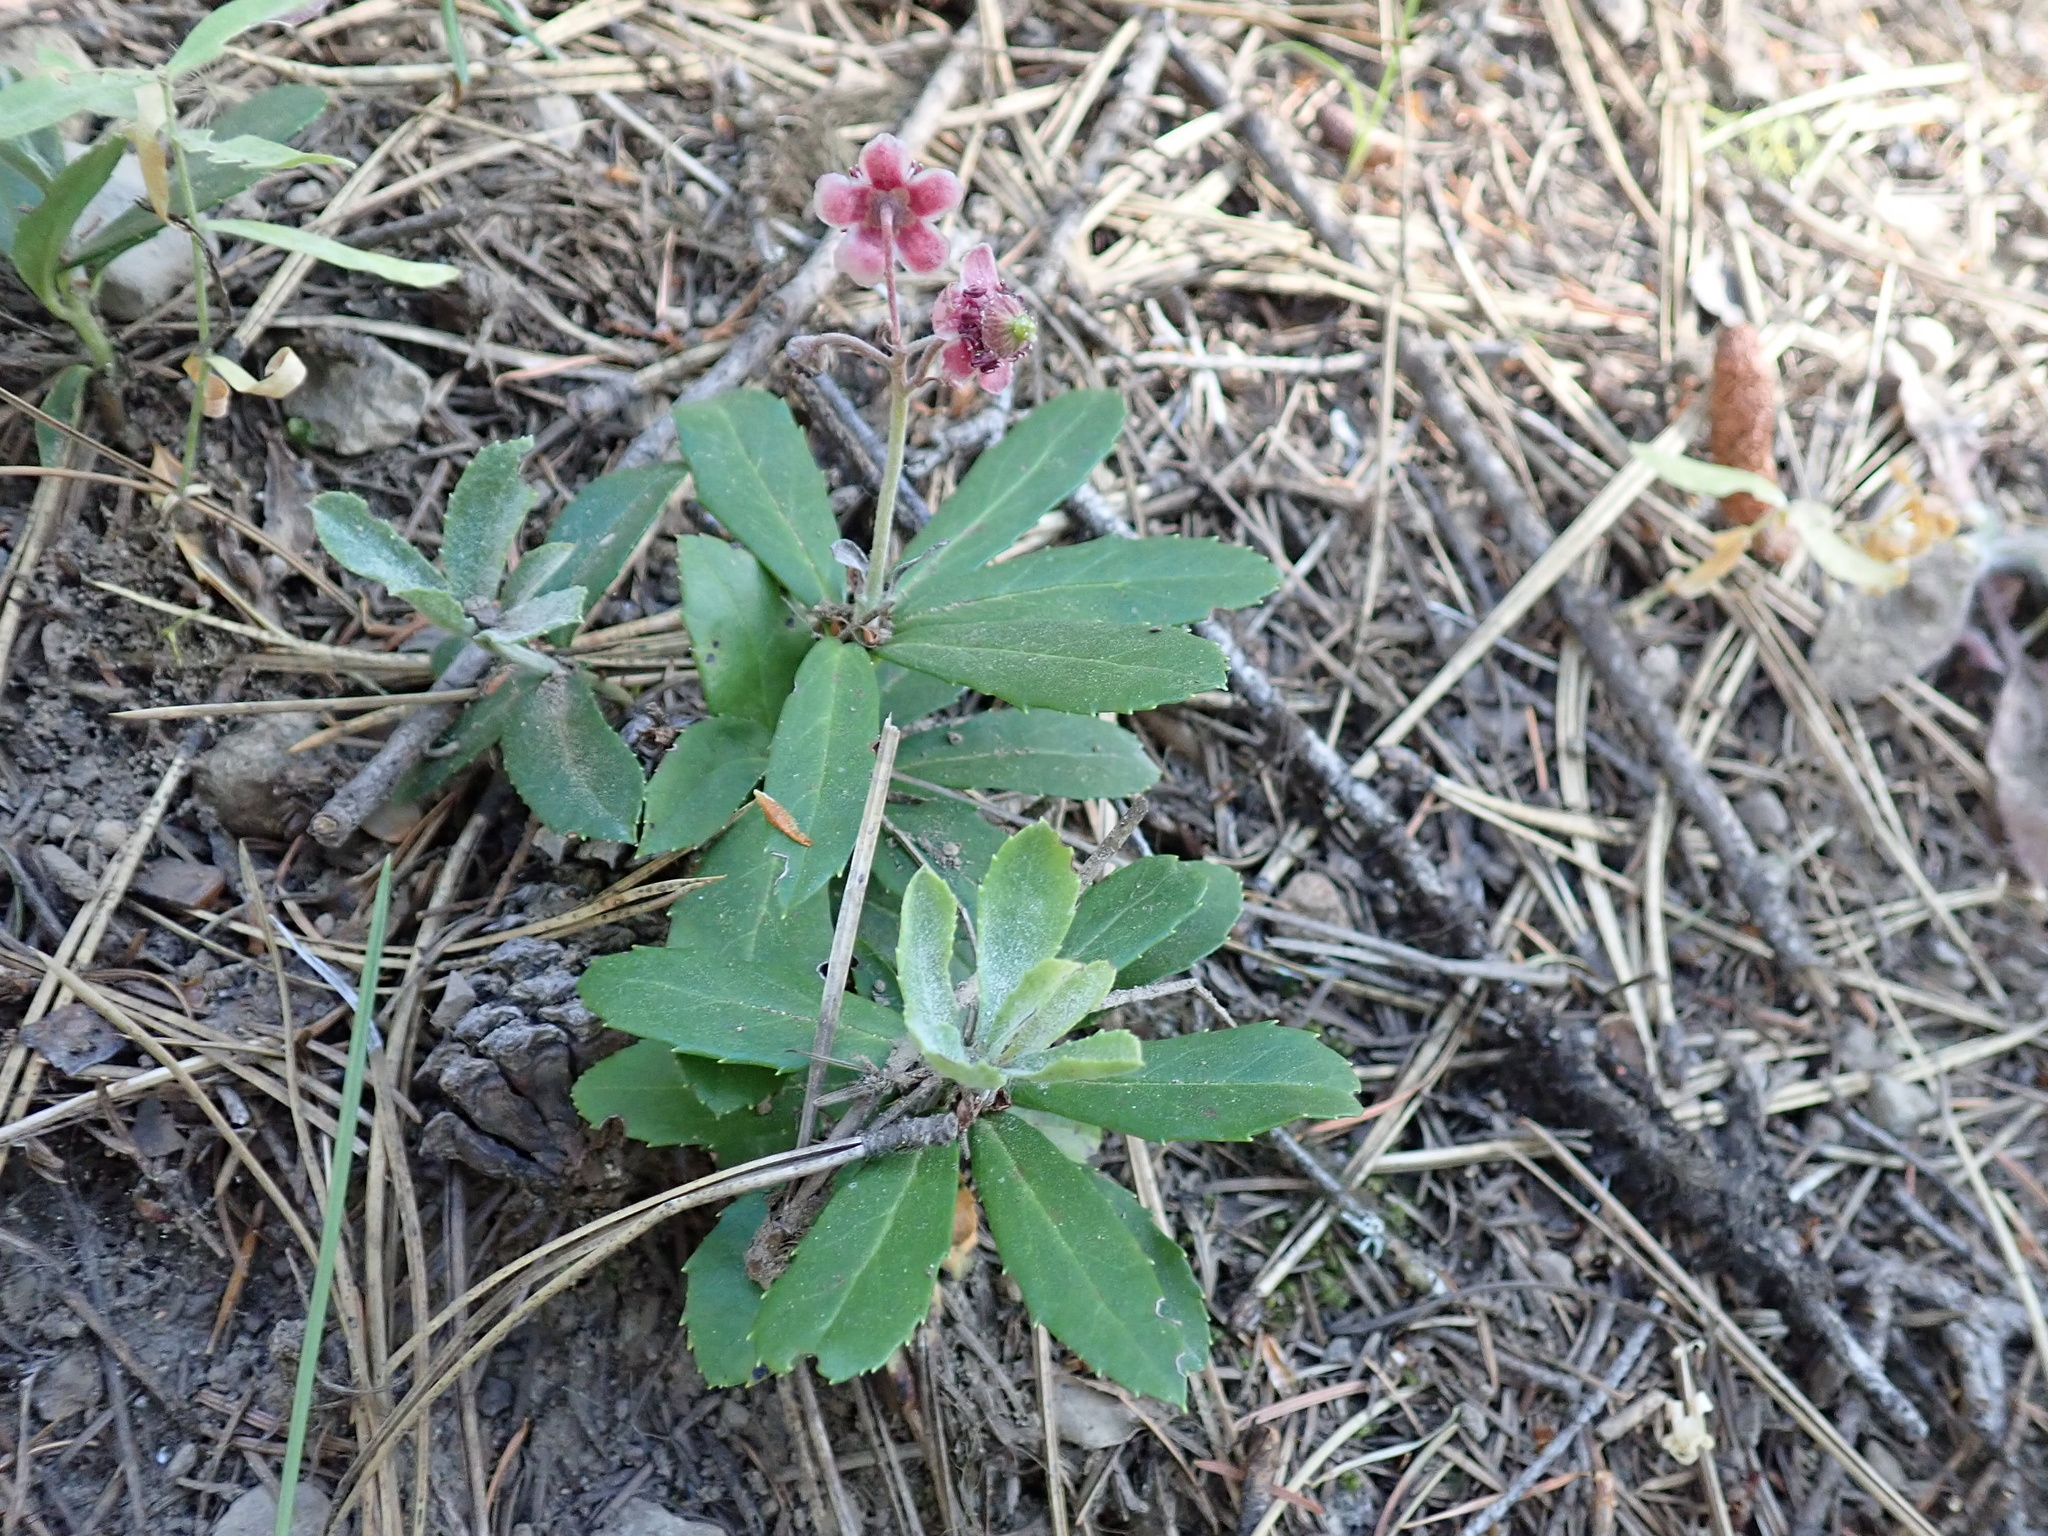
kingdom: Plantae
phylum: Tracheophyta
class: Magnoliopsida
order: Ericales
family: Ericaceae
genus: Chimaphila
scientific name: Chimaphila umbellata
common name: Pipsissewa
